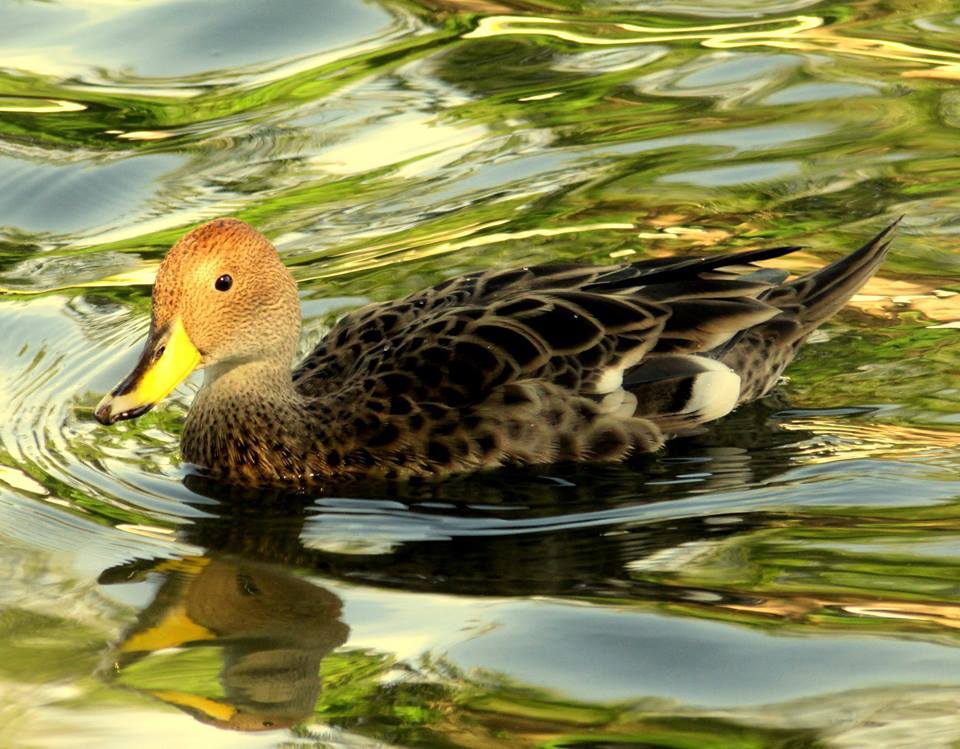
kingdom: Animalia
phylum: Chordata
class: Aves
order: Anseriformes
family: Anatidae
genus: Anas
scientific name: Anas georgica
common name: Yellow-billed pintail
